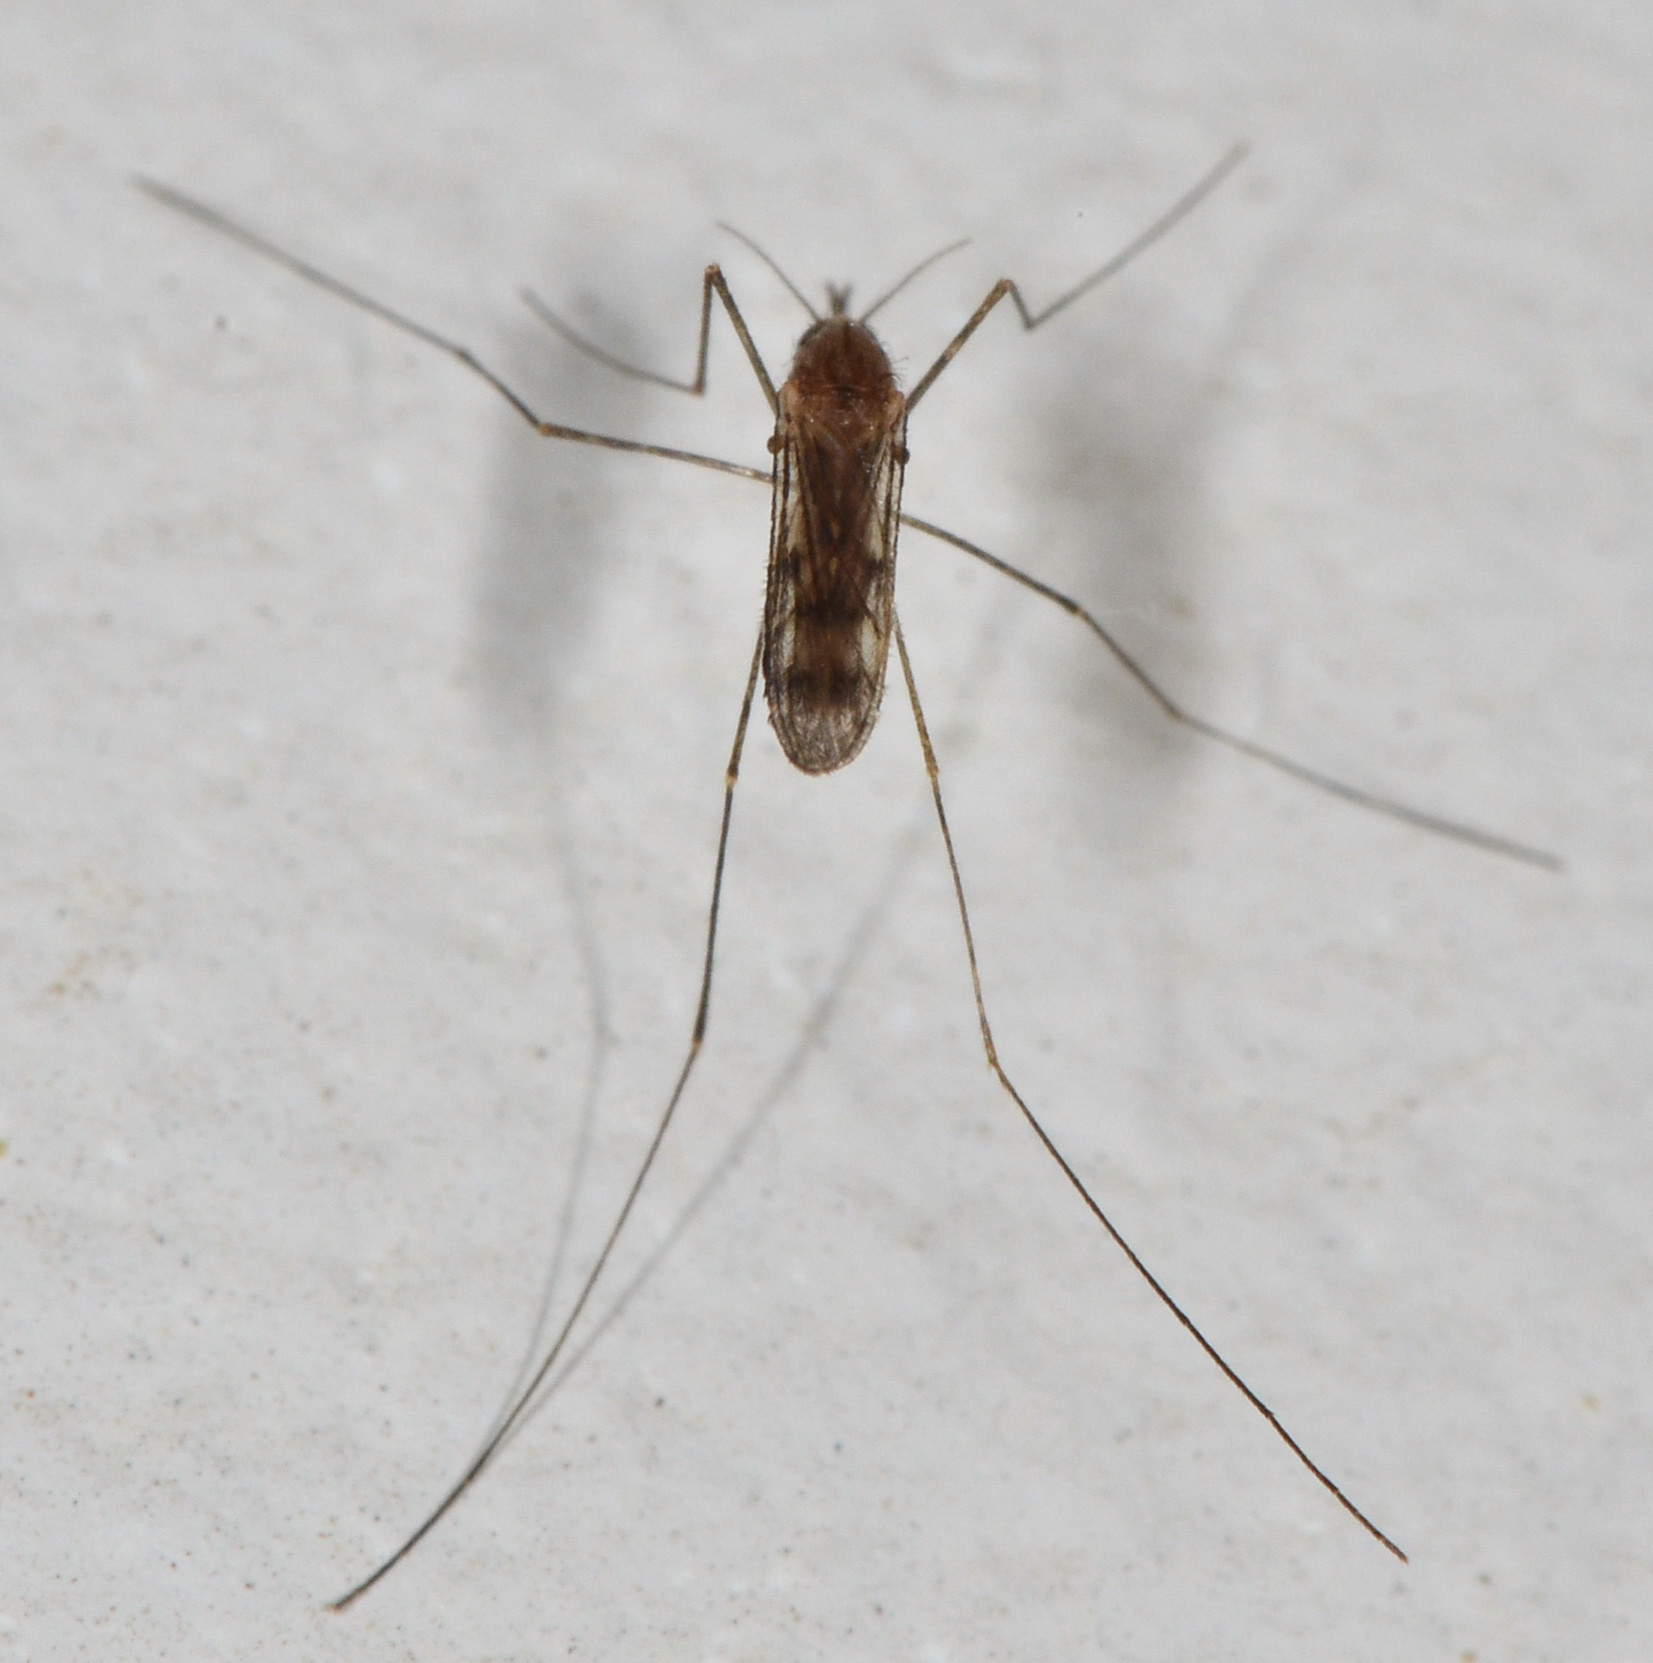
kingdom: Animalia
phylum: Arthropoda
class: Insecta
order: Diptera
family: Culicidae
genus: Anopheles
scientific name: Anopheles freeborni
